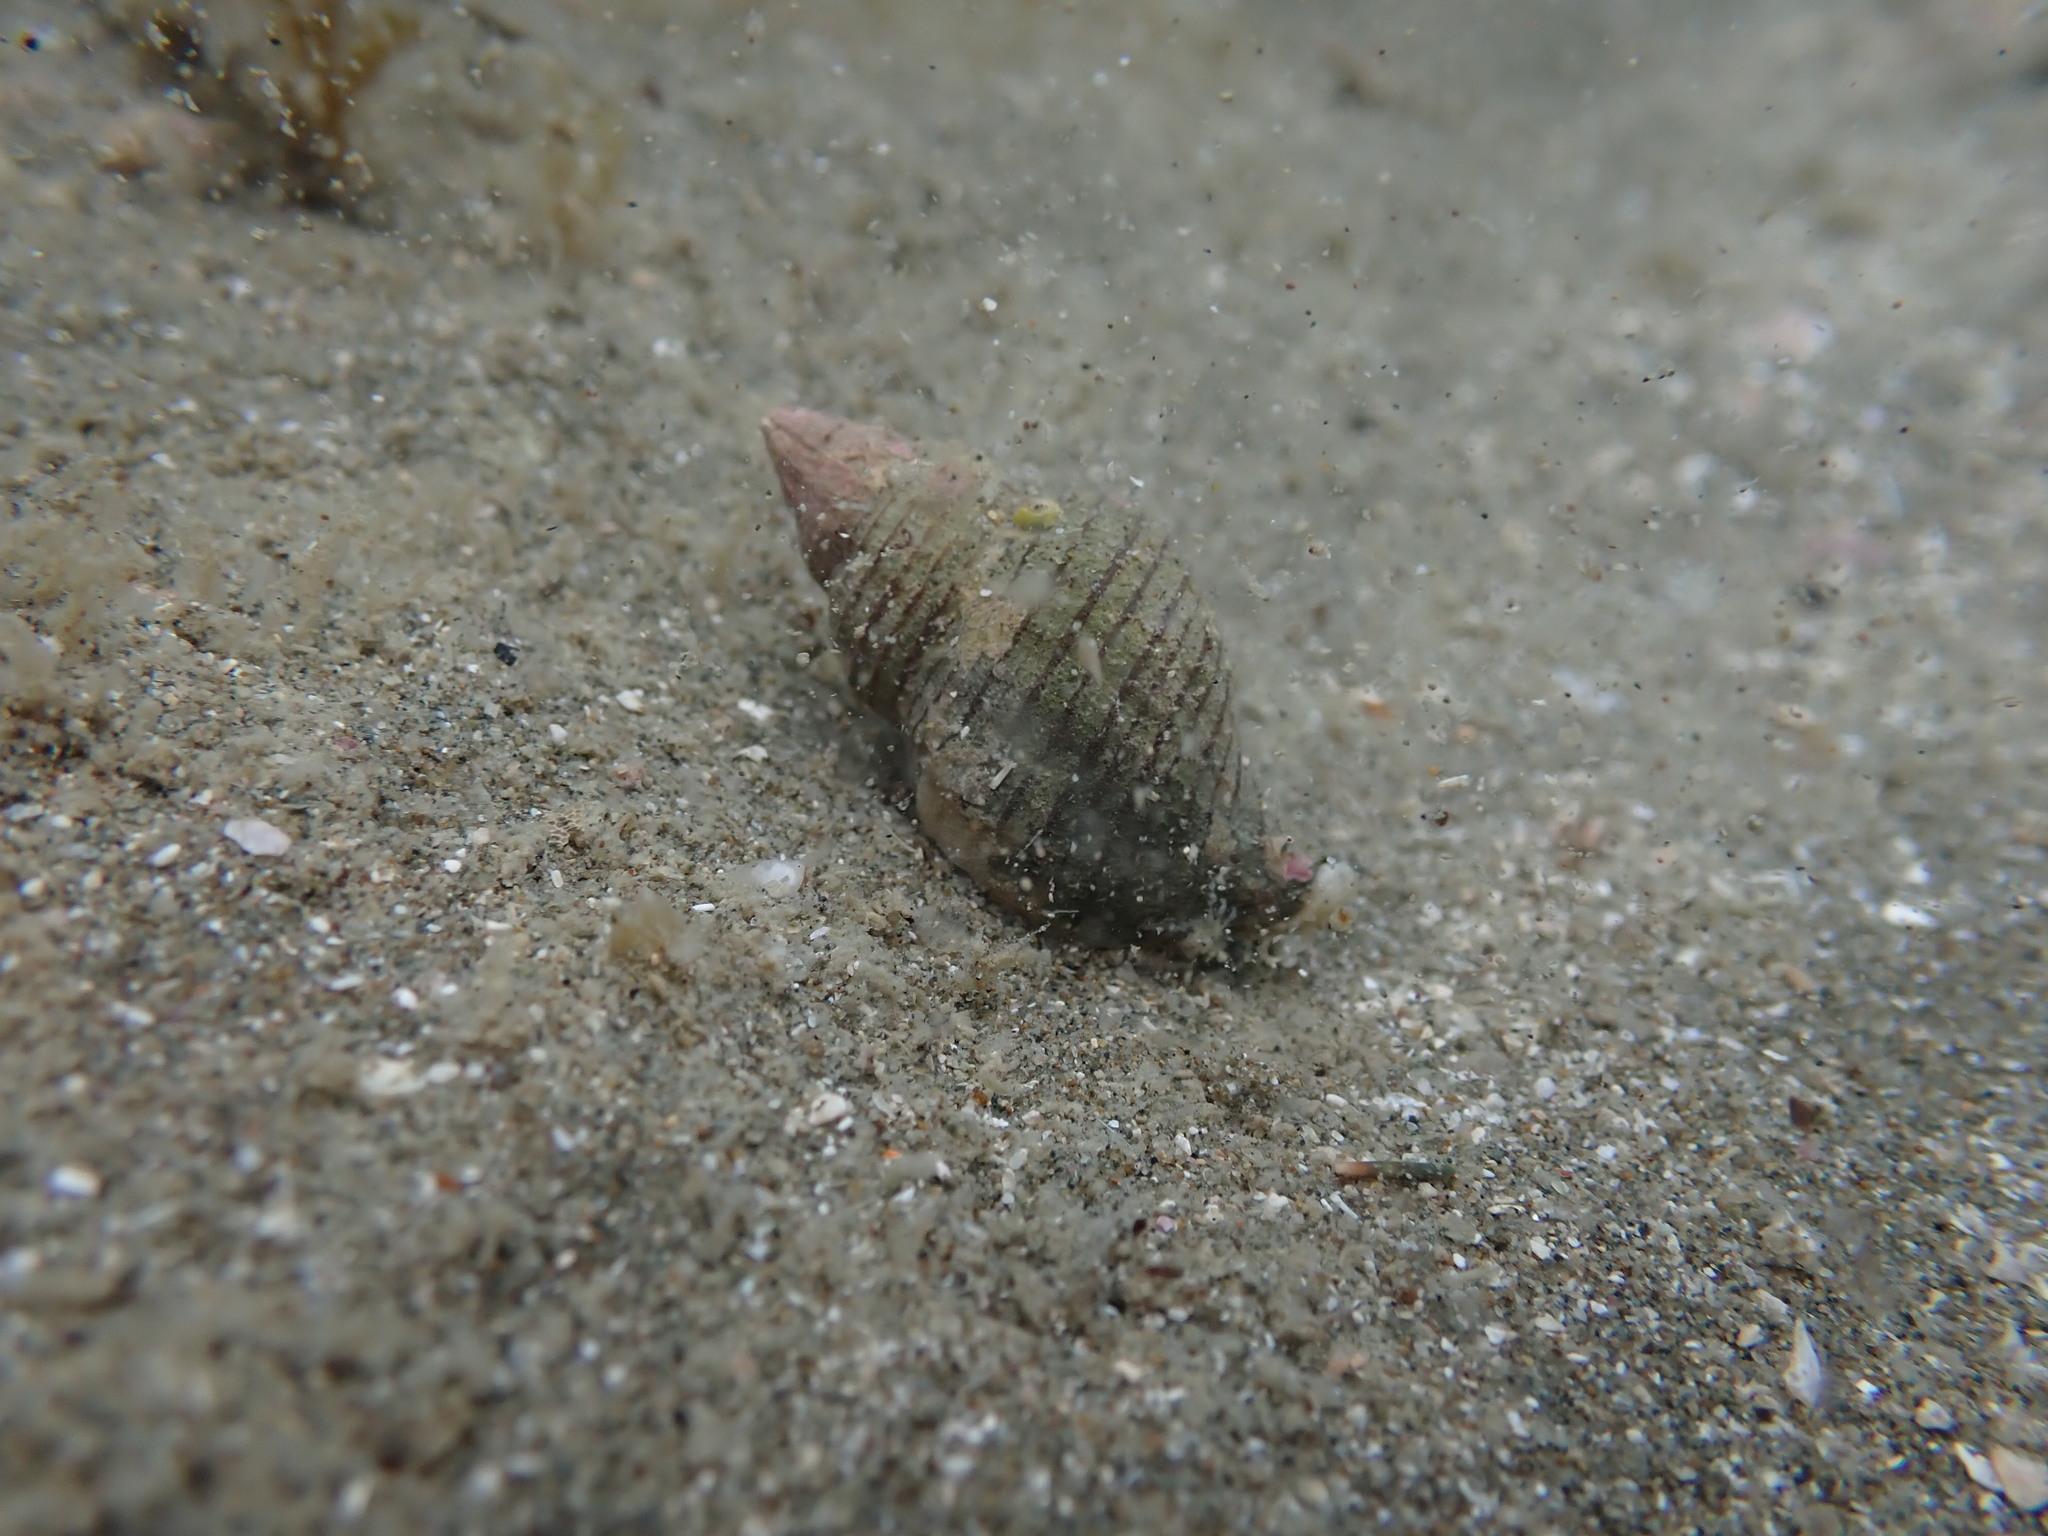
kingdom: Animalia
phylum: Mollusca
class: Gastropoda
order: Neogastropoda
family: Tudiclidae
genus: Buccinulum
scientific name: Buccinulum linea
